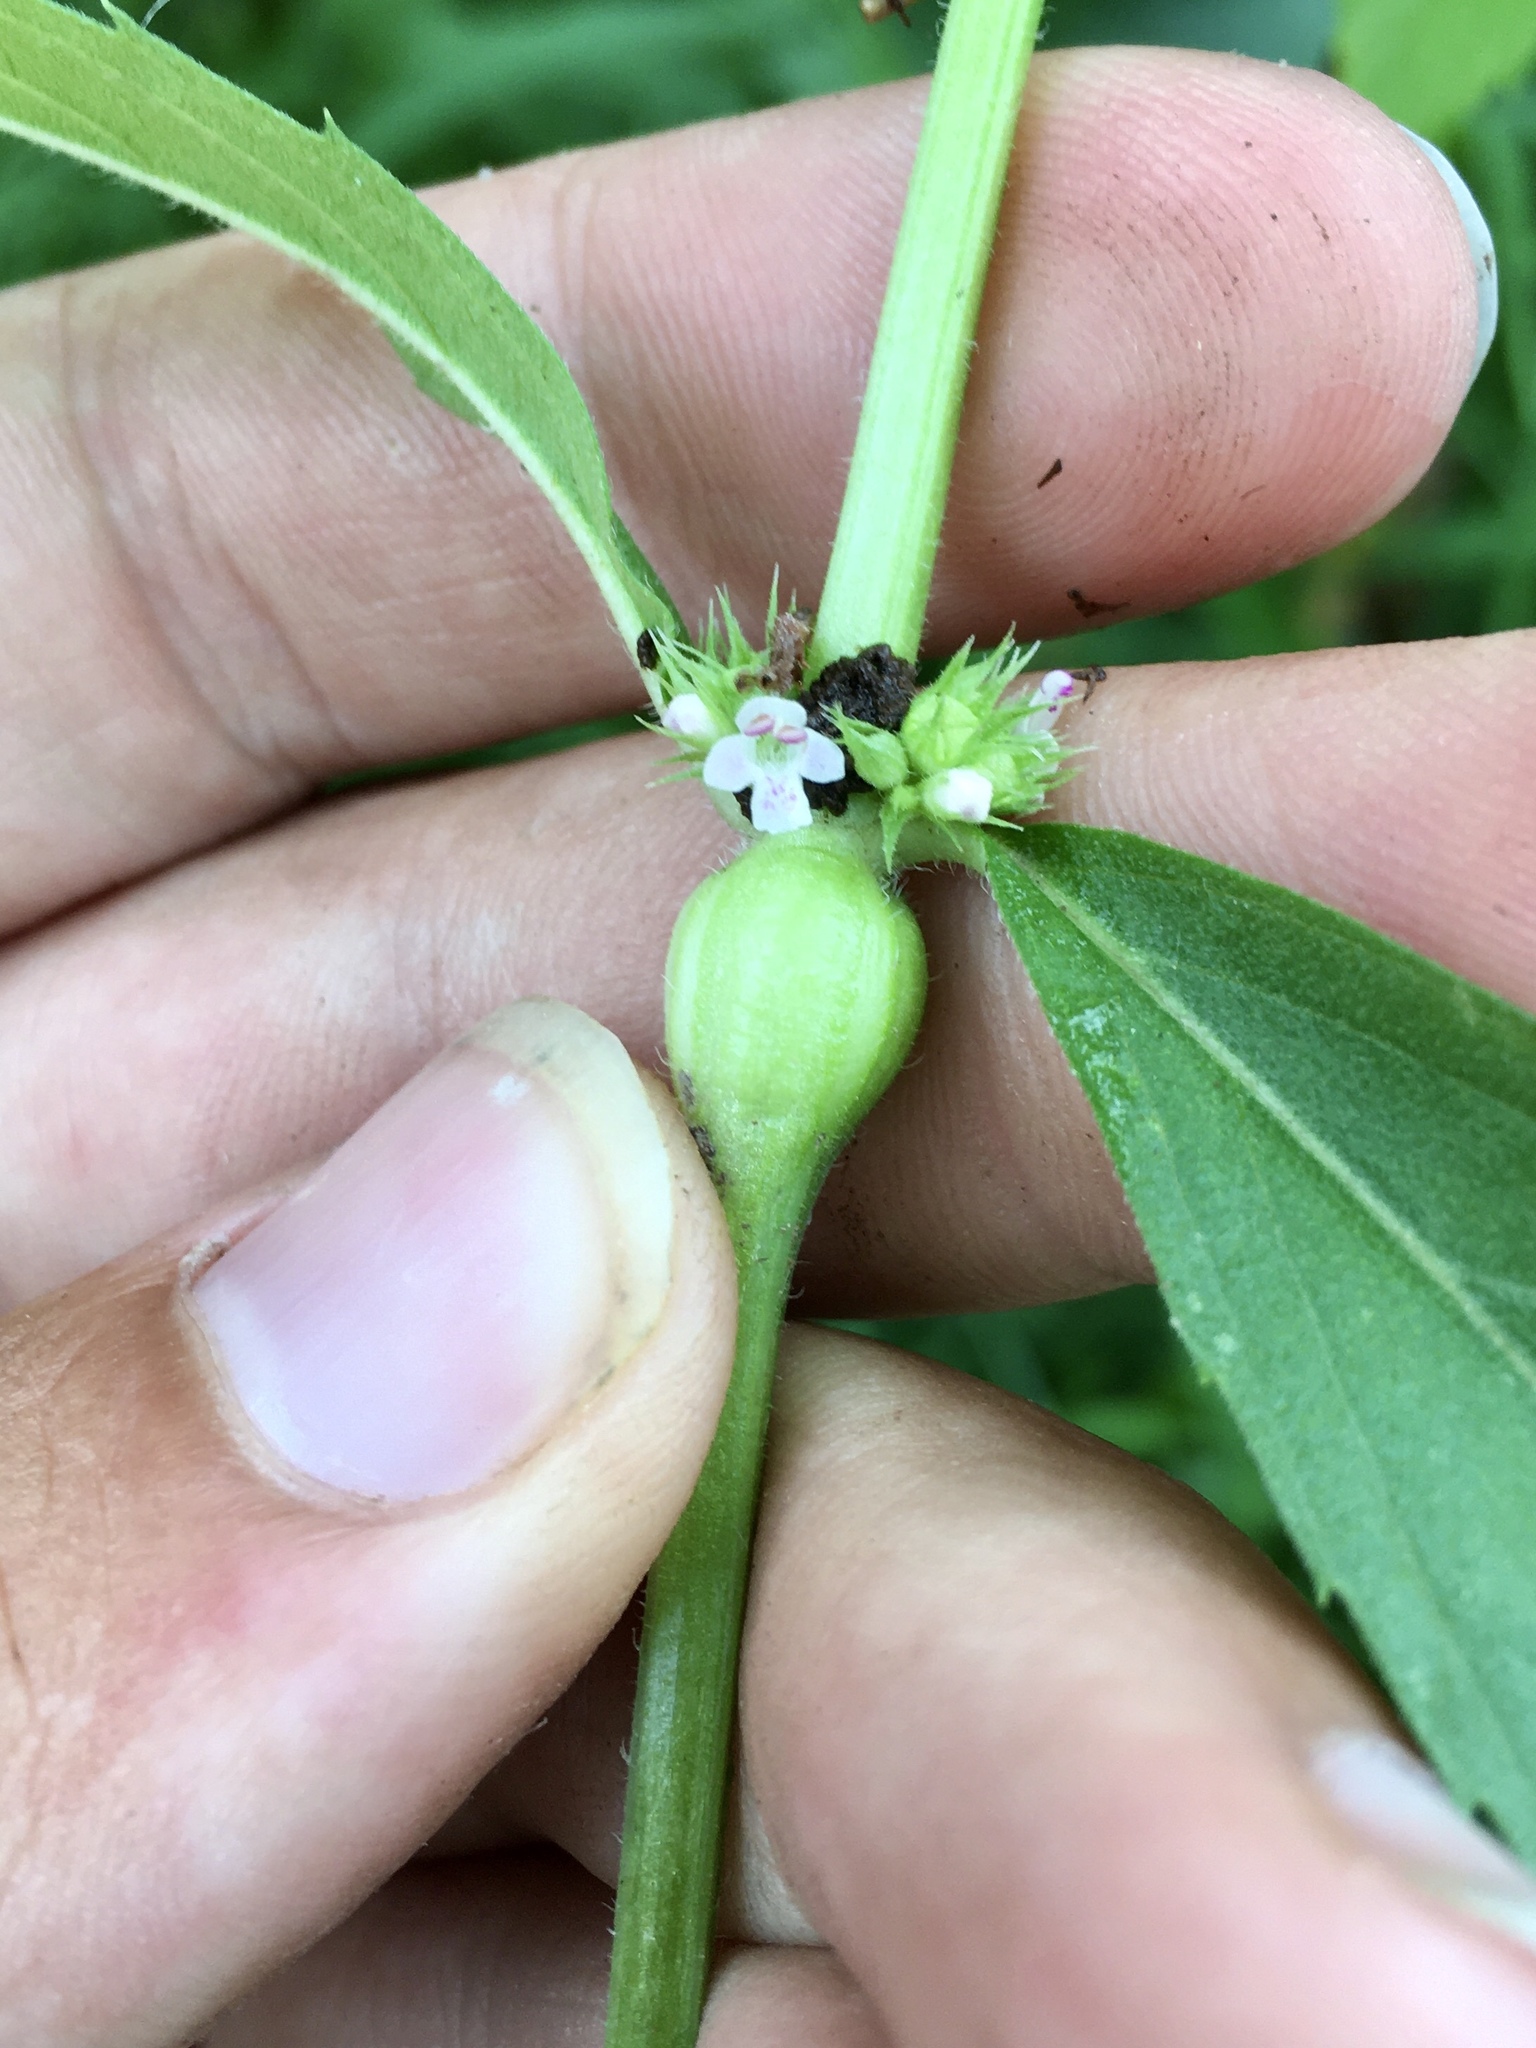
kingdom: Animalia
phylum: Arthropoda
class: Insecta
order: Diptera
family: Cecidomyiidae
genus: Neolasioptera
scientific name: Neolasioptera lycopi
